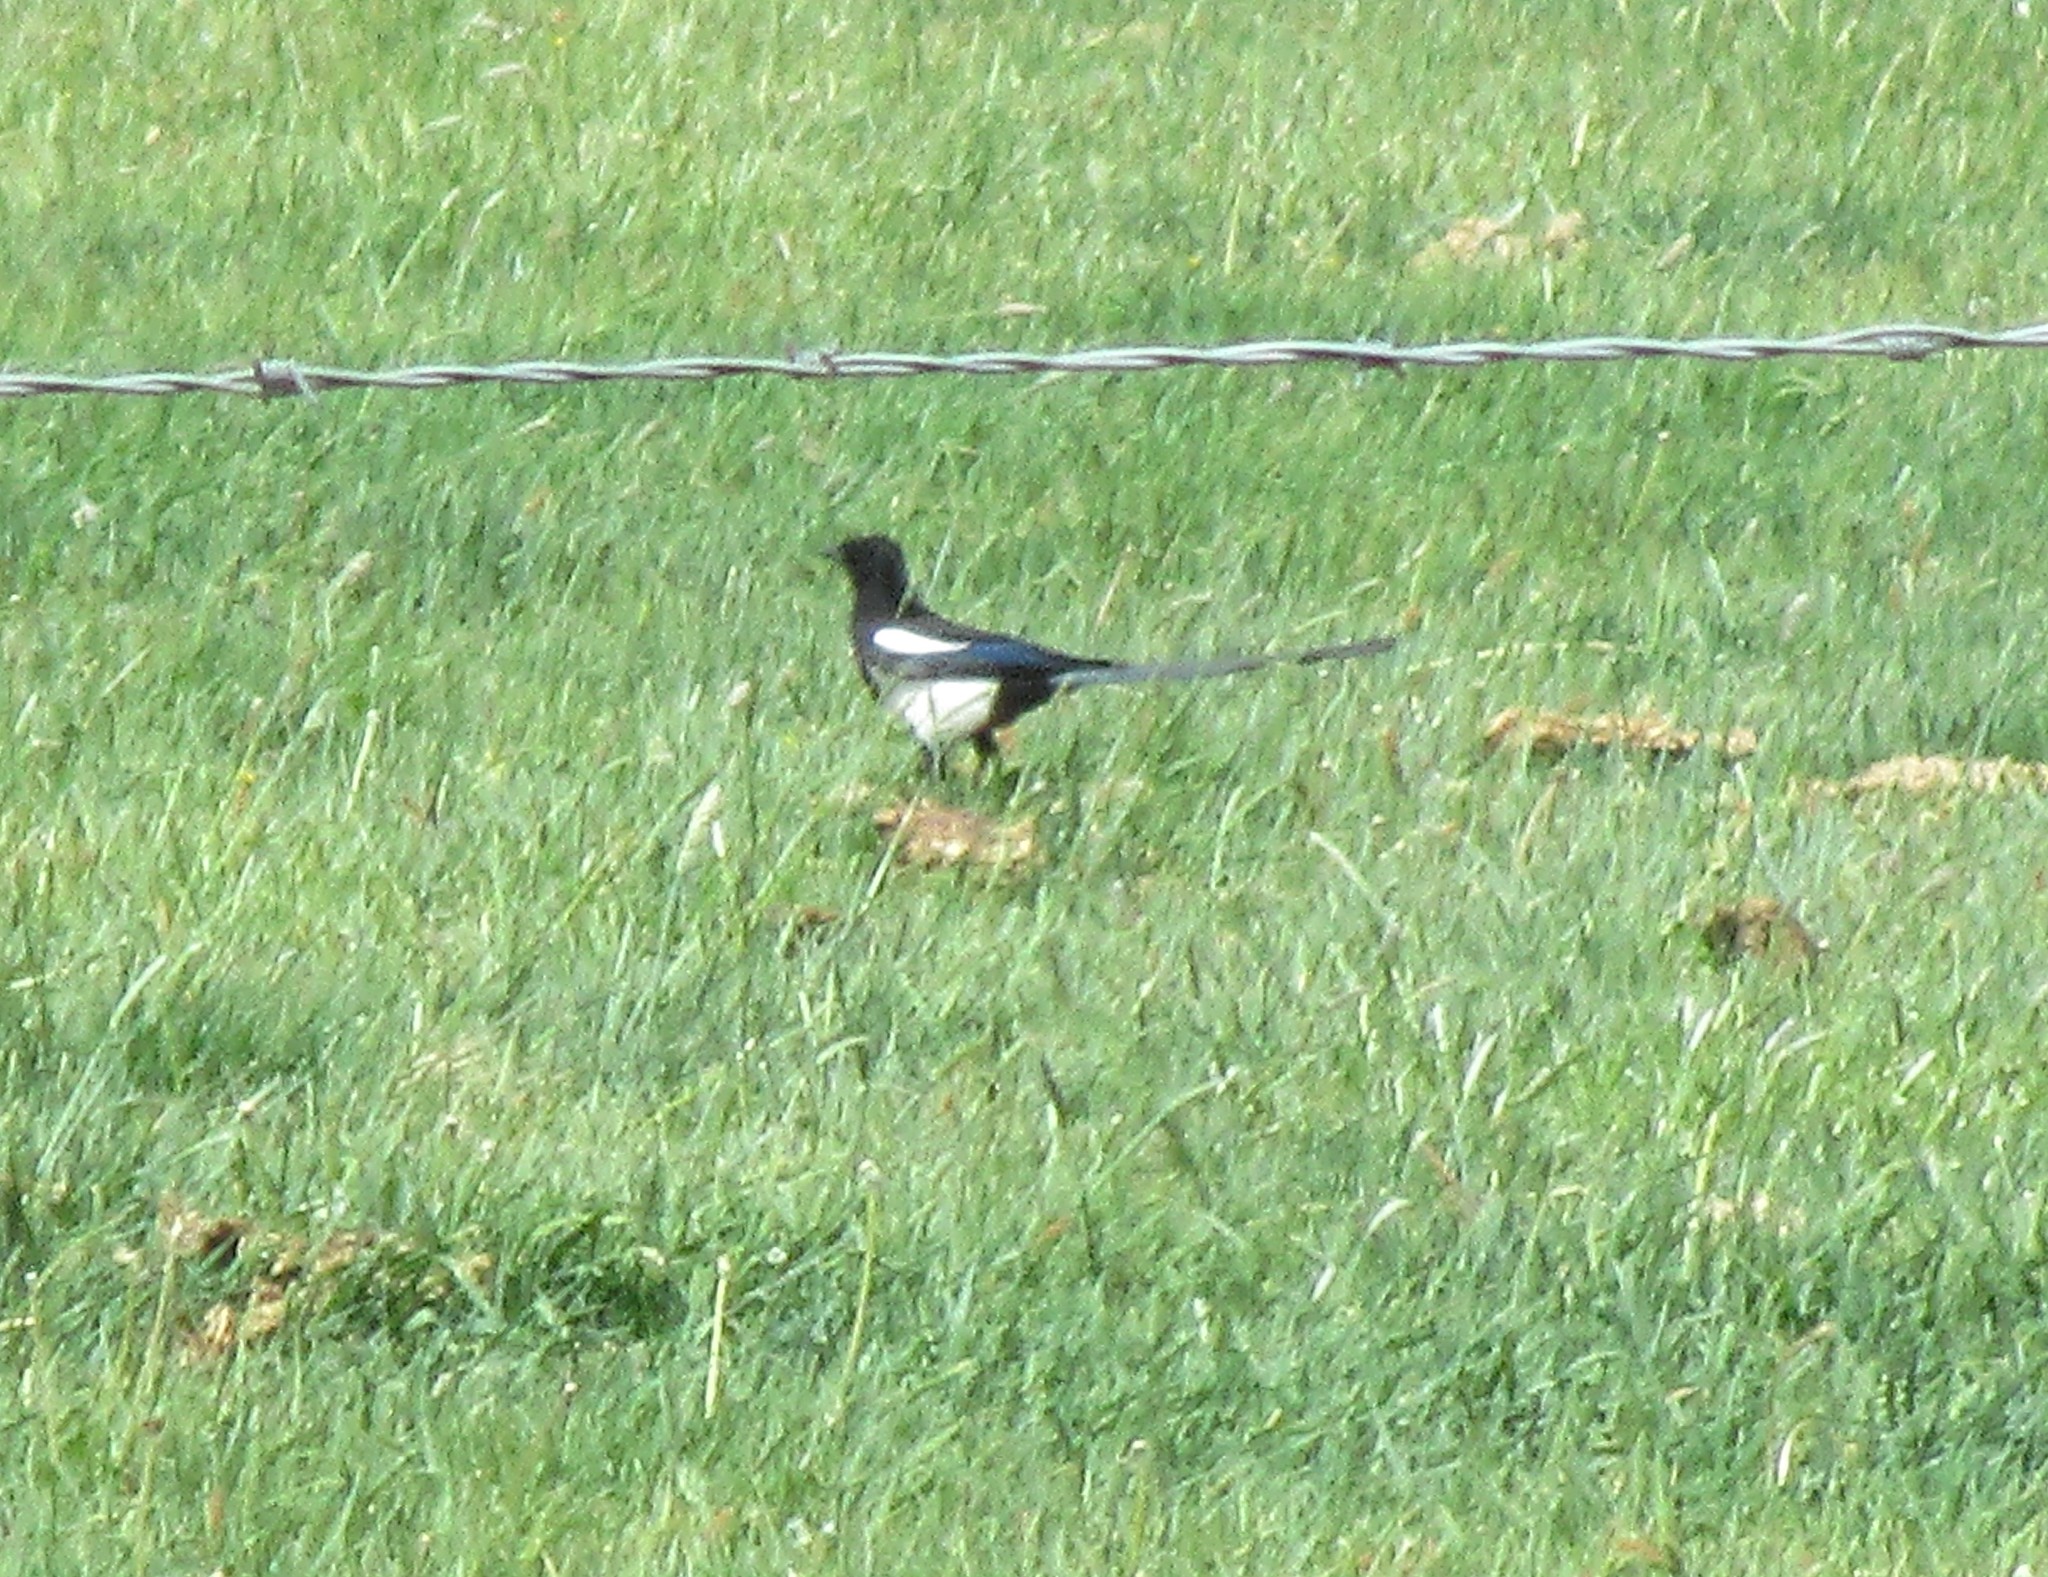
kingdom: Animalia
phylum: Chordata
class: Aves
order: Passeriformes
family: Corvidae
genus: Pica
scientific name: Pica hudsonia
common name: Black-billed magpie
